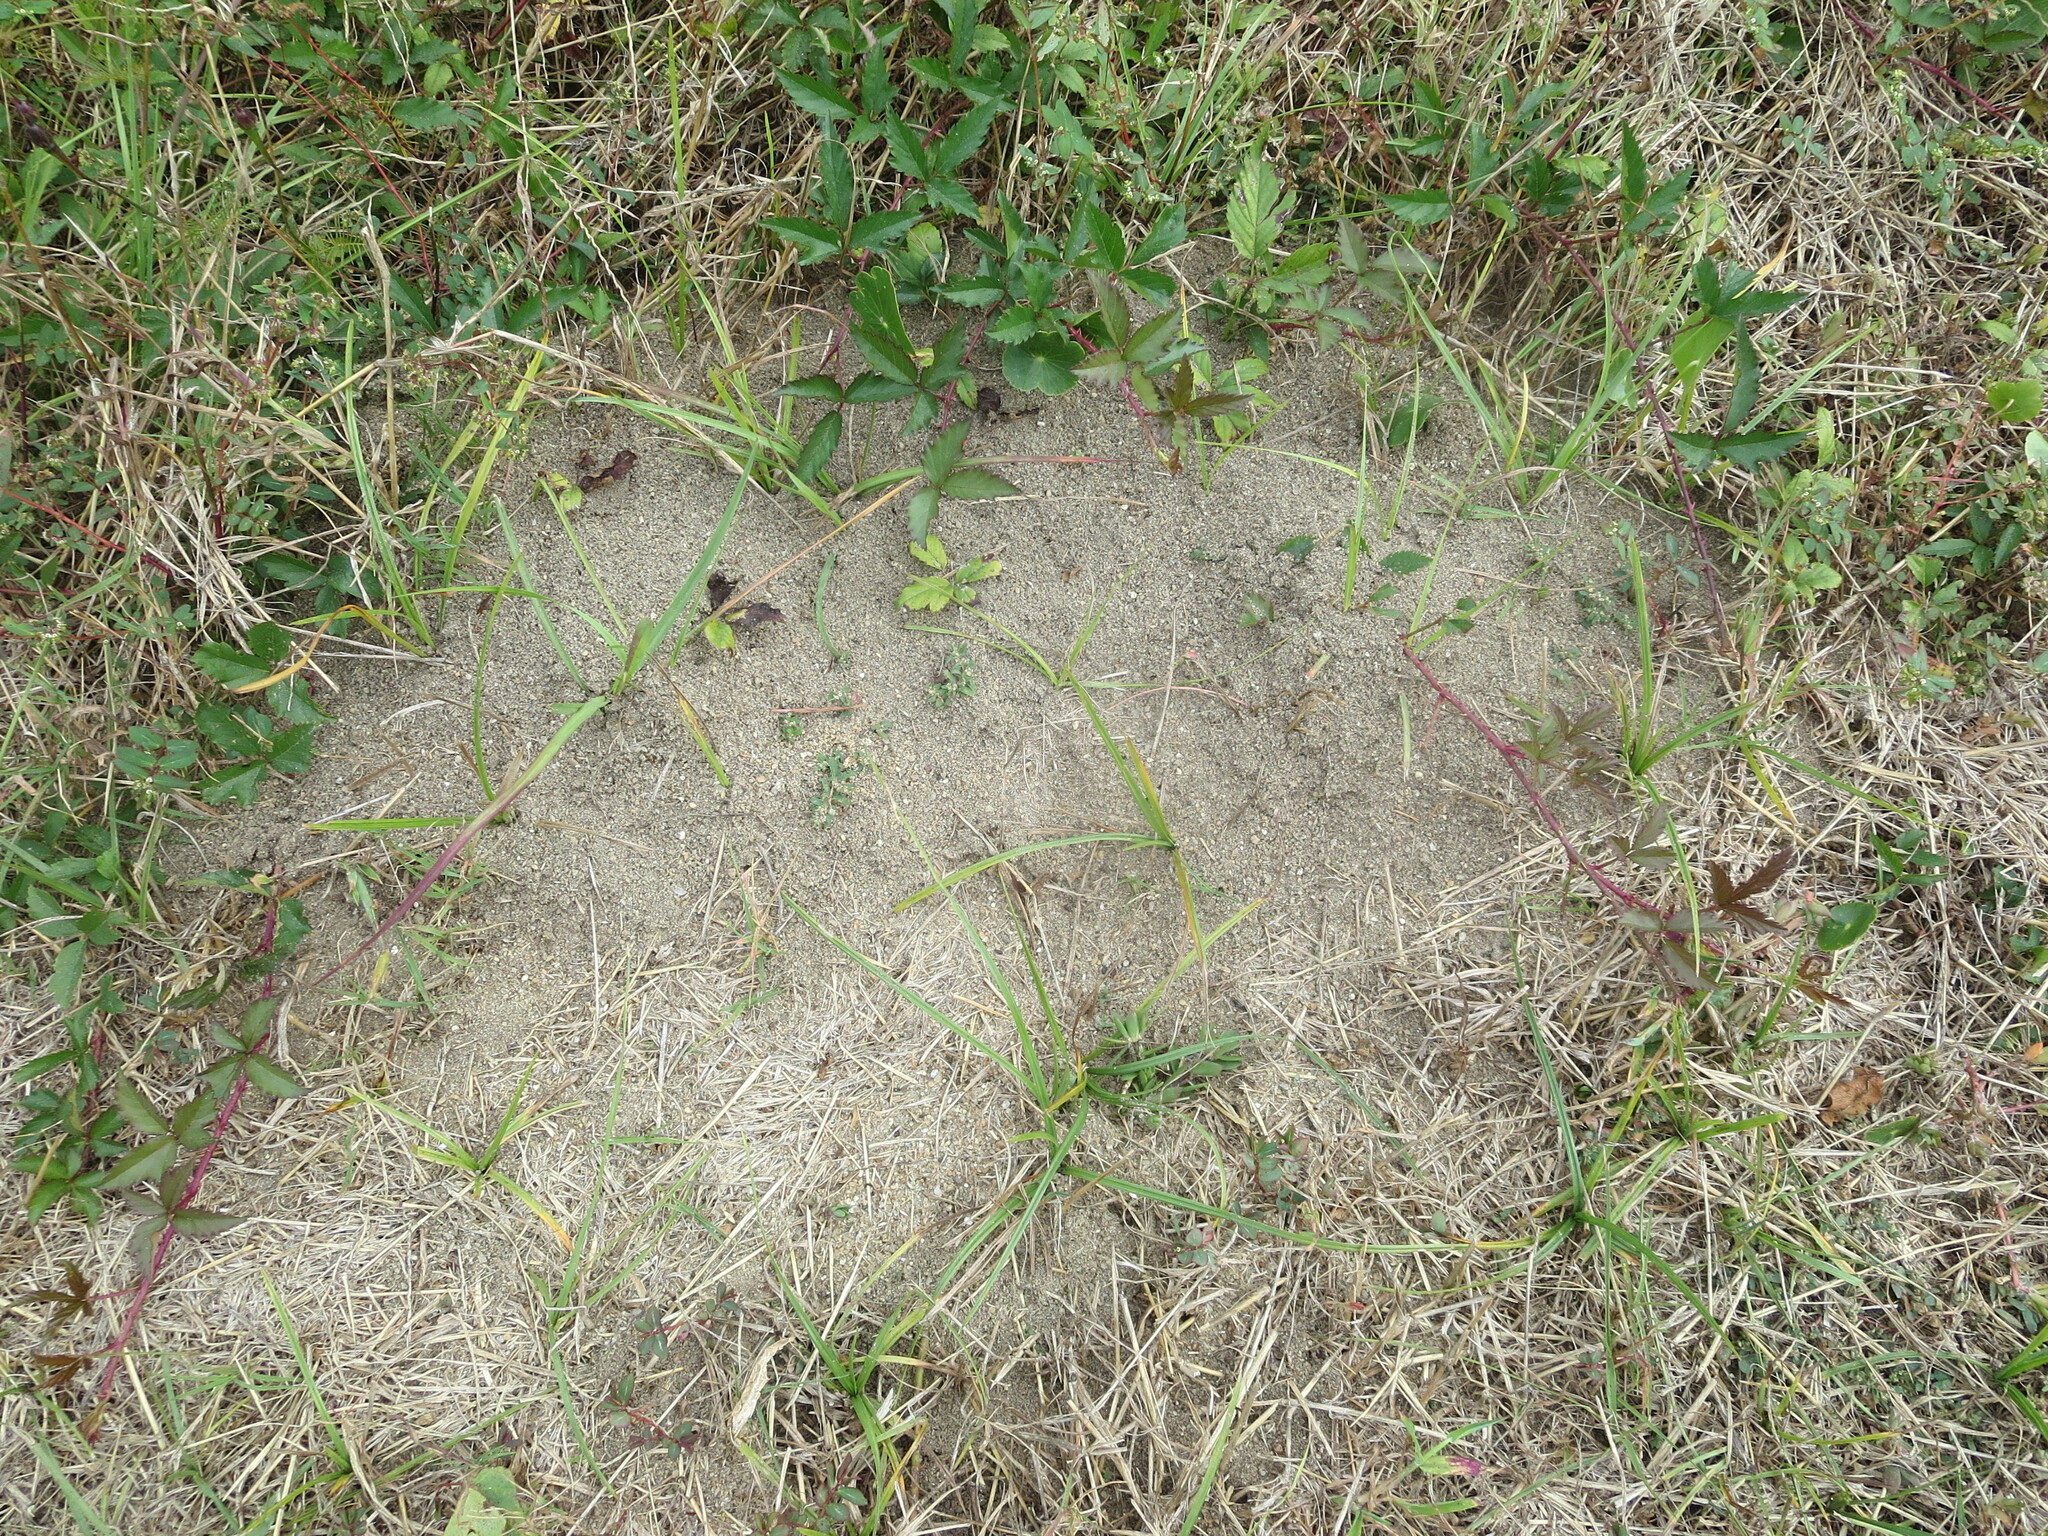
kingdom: Animalia
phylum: Arthropoda
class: Insecta
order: Hymenoptera
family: Formicidae
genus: Solenopsis
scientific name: Solenopsis invicta
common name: Red imported fire ant
